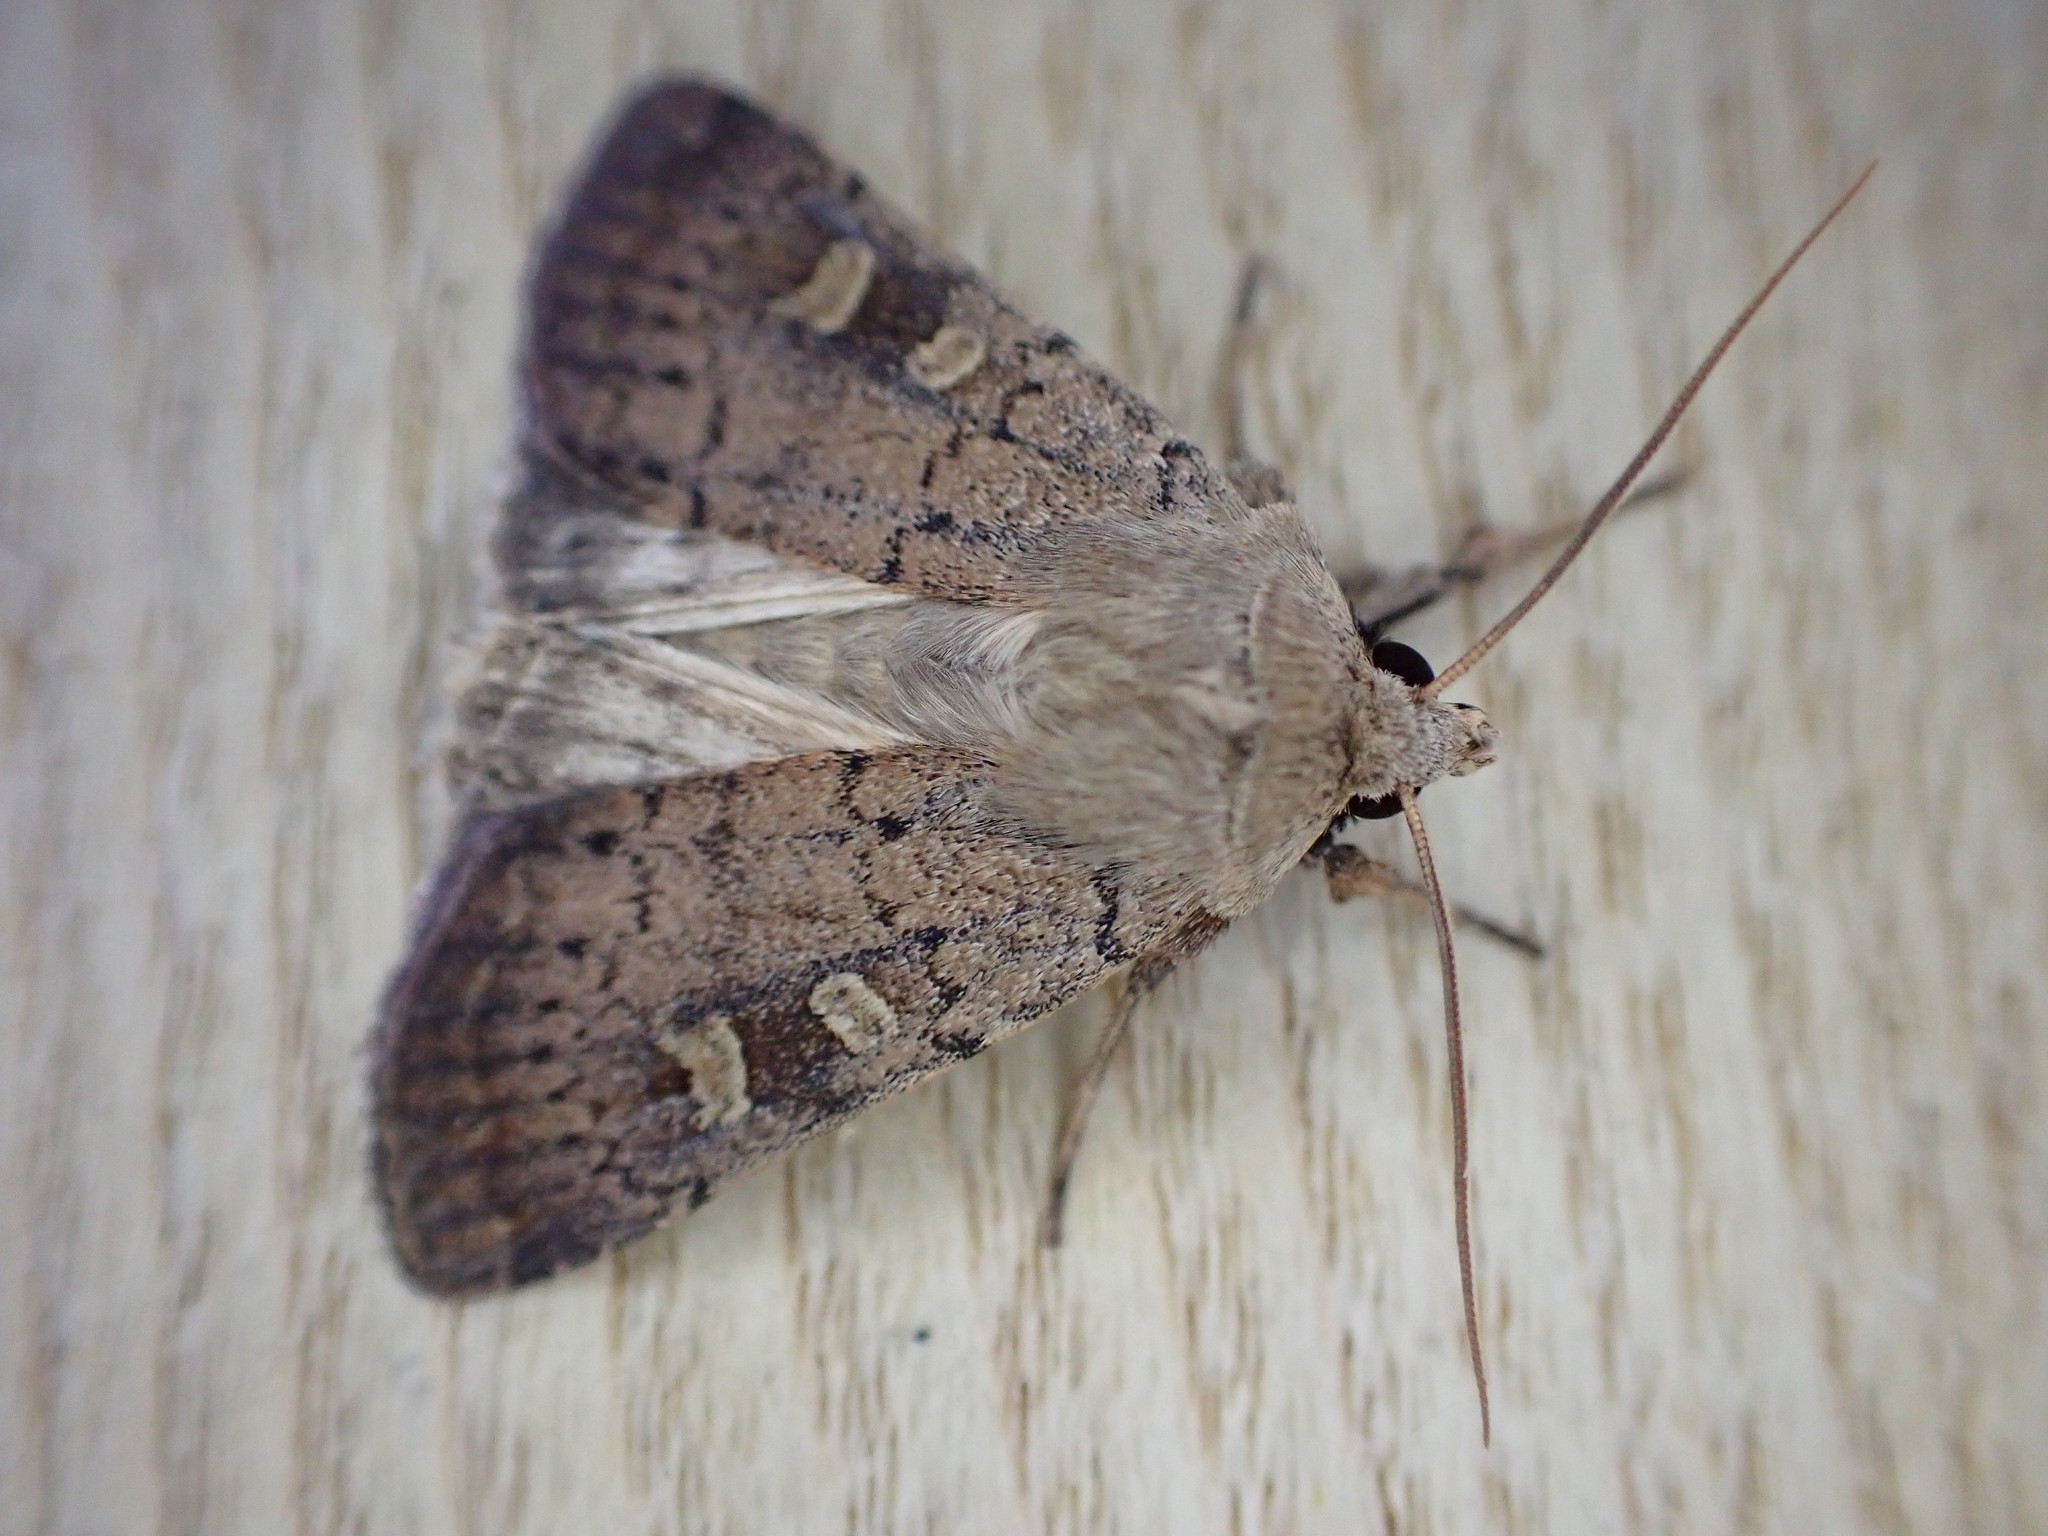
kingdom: Animalia
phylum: Arthropoda
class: Insecta
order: Lepidoptera
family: Noctuidae
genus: Xestia
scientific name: Xestia xanthographa
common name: Square-spot rustic
